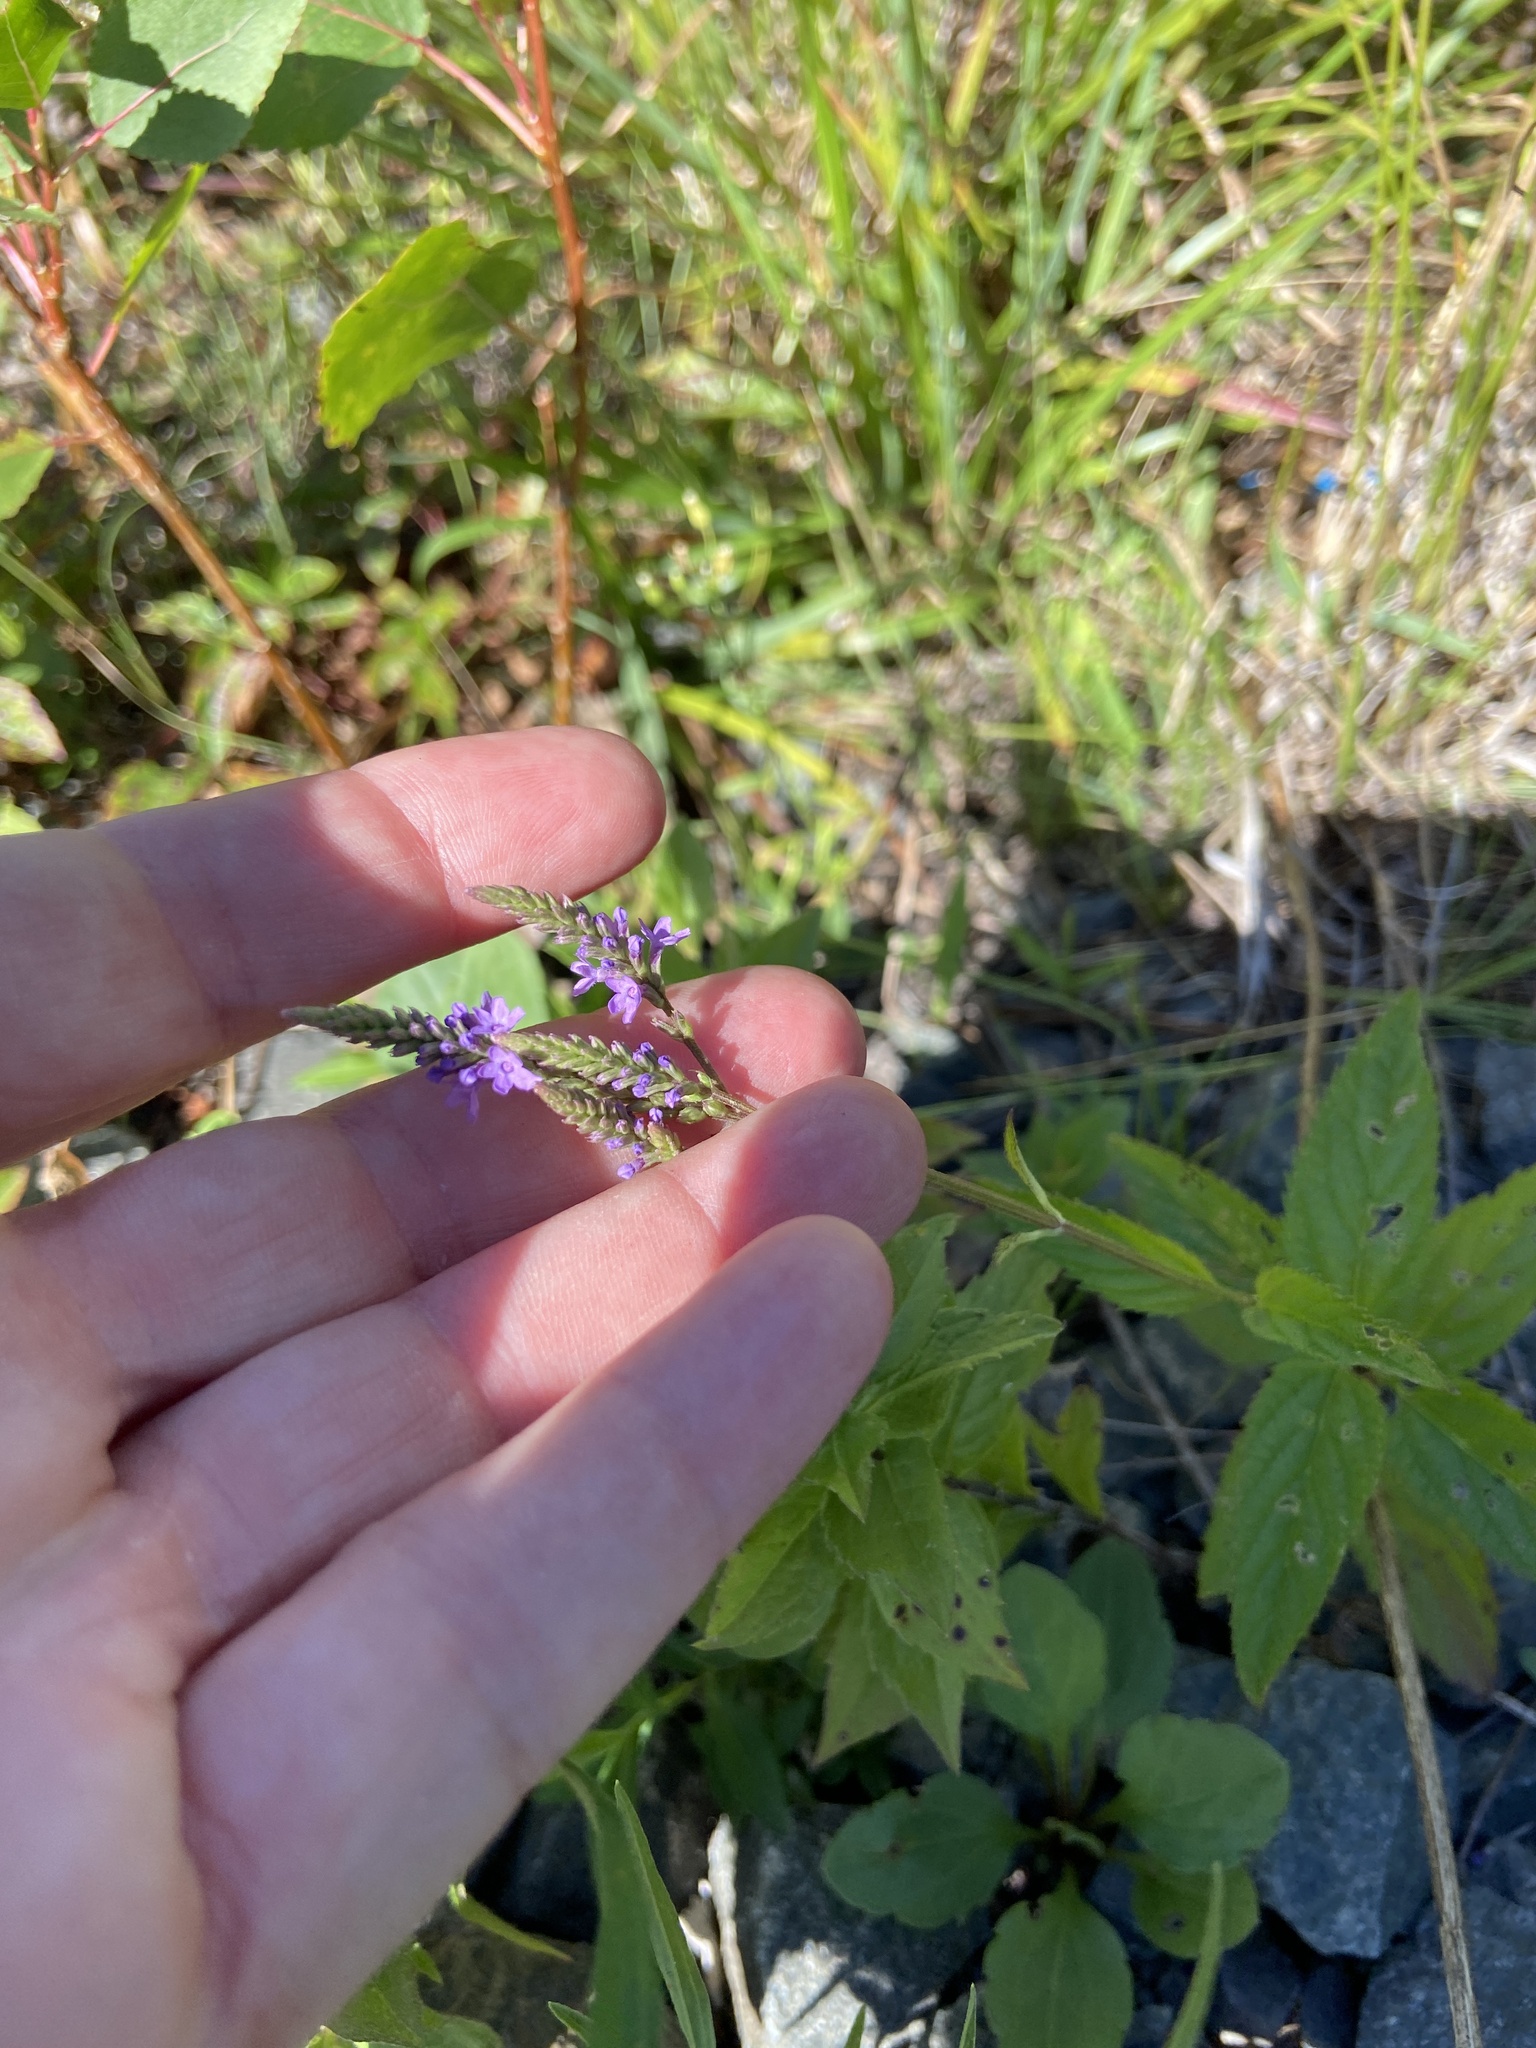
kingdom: Plantae
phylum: Tracheophyta
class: Magnoliopsida
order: Lamiales
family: Verbenaceae
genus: Verbena
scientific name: Verbena hastata
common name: American blue vervain
